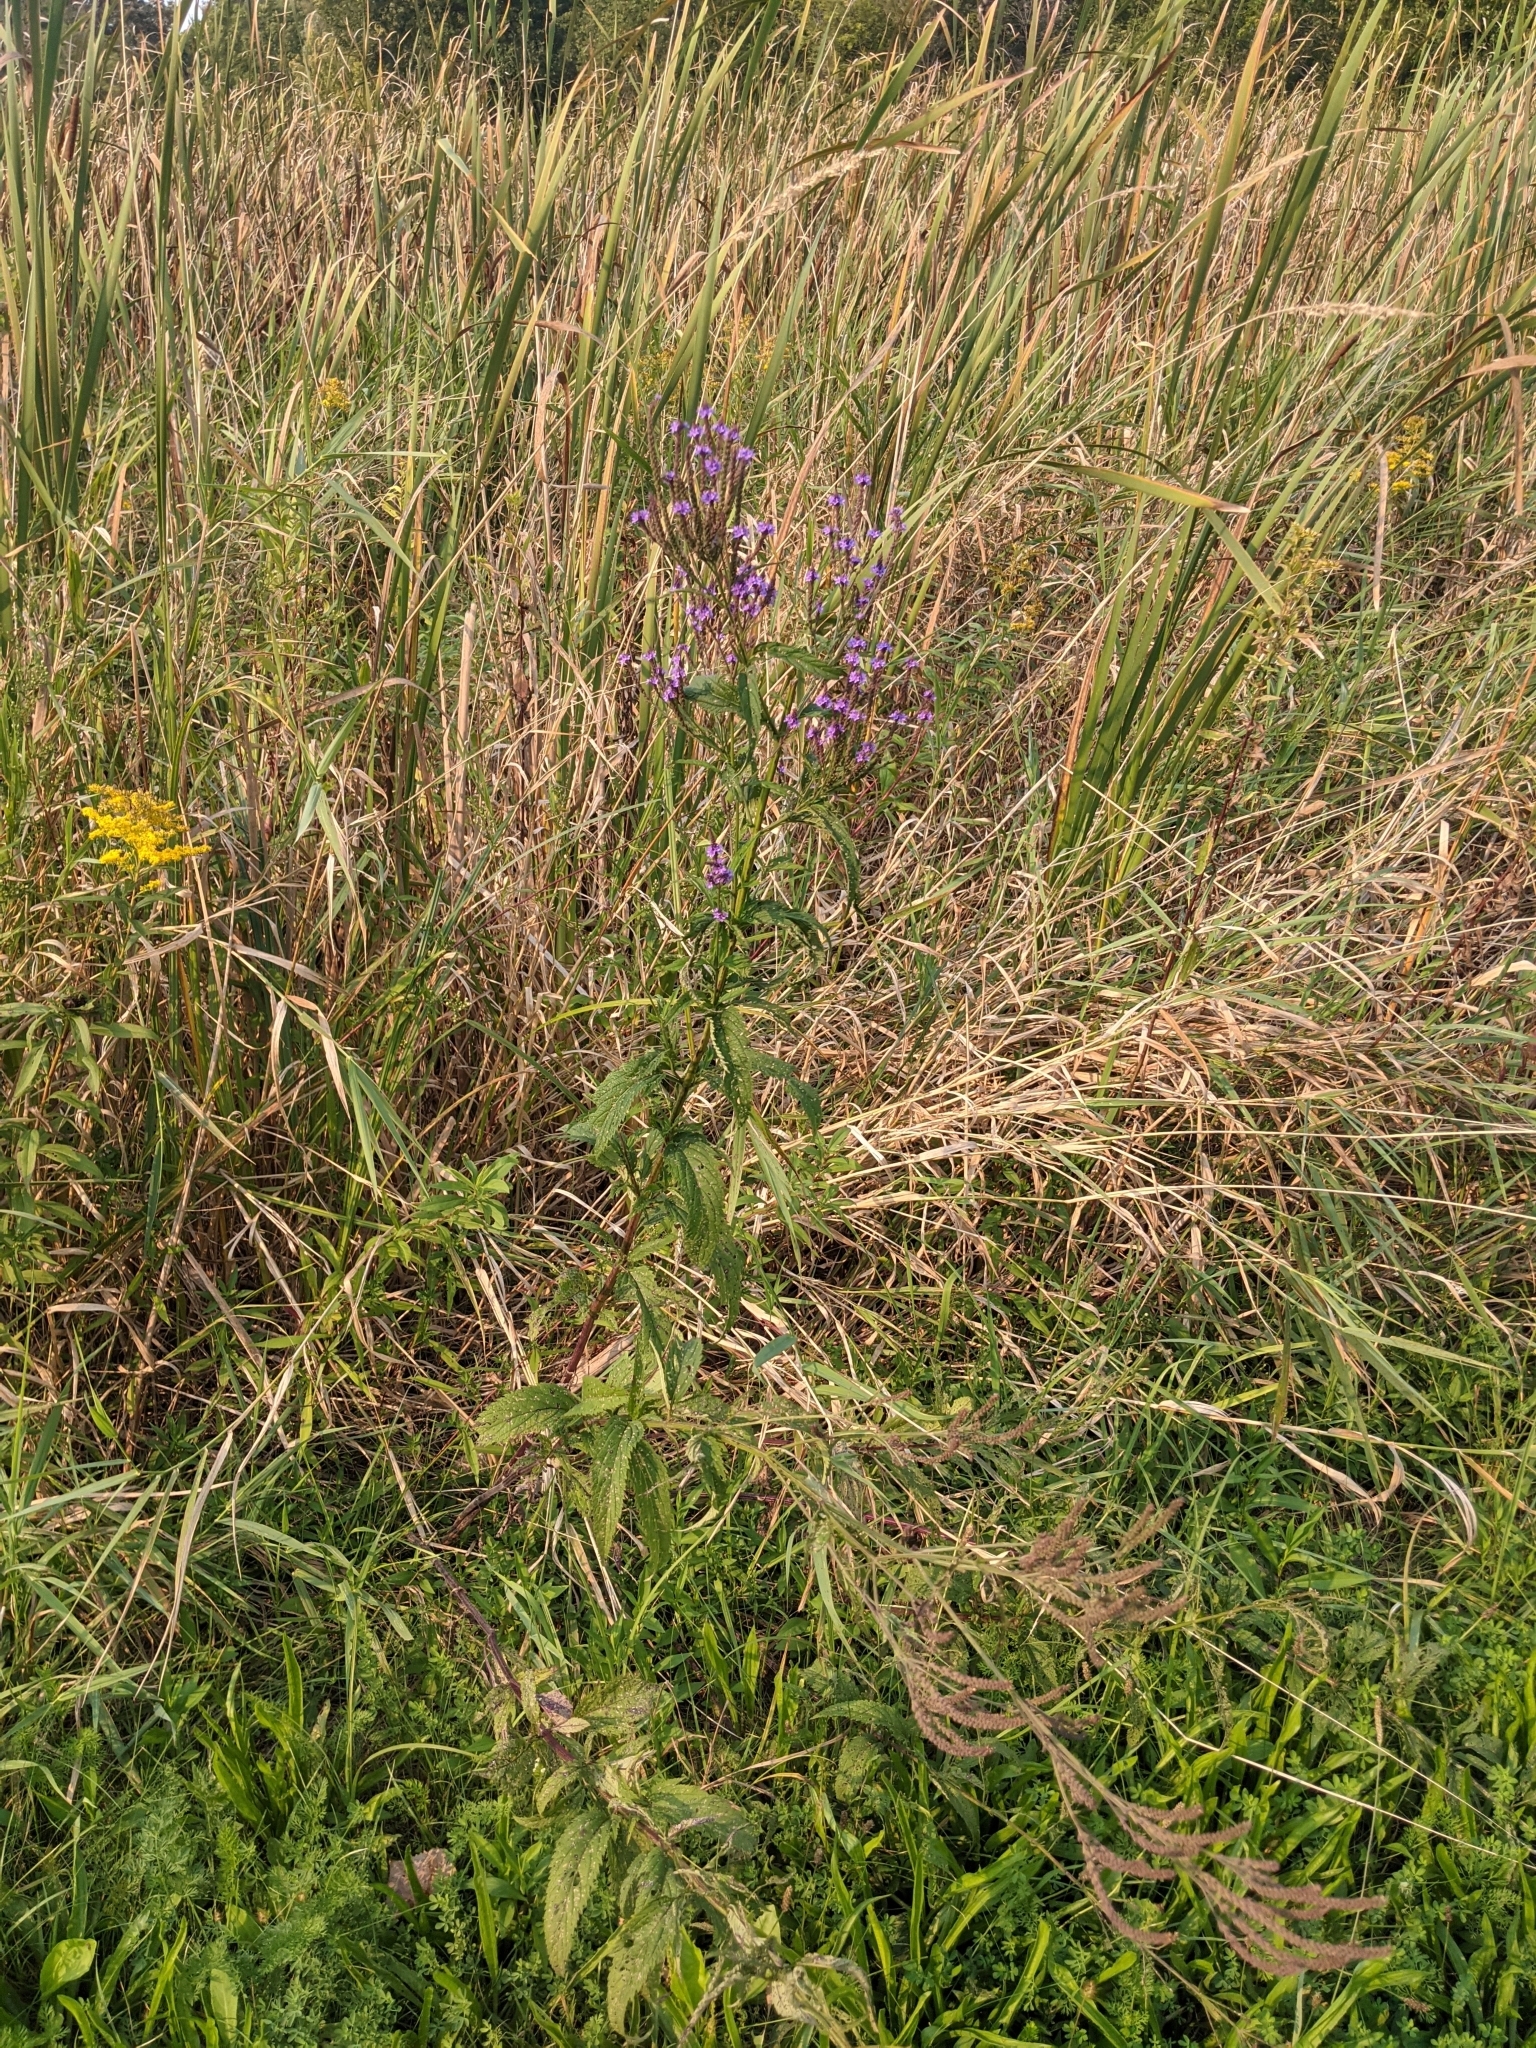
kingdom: Plantae
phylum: Tracheophyta
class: Magnoliopsida
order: Lamiales
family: Verbenaceae
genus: Verbena
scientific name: Verbena hastata
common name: American blue vervain
